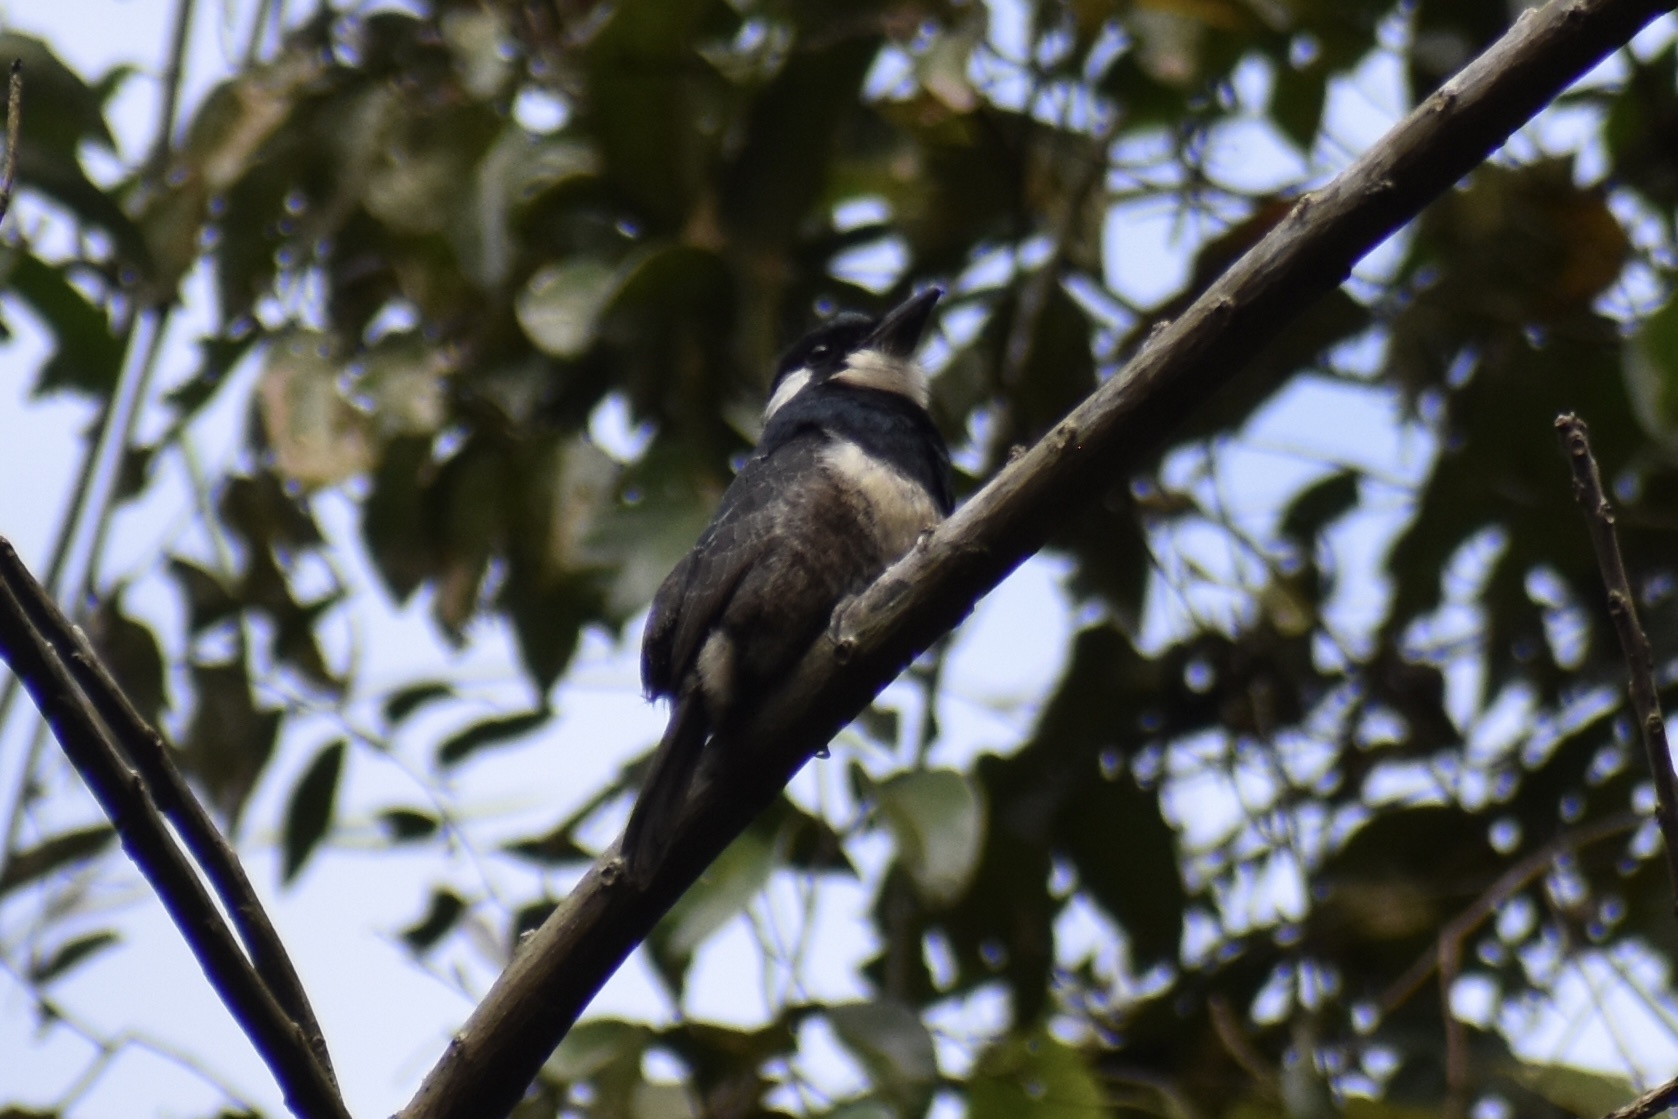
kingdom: Animalia
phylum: Chordata
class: Aves
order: Piciformes
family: Bucconidae
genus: Notharchus
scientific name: Notharchus pectoralis
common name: Black-breasted puffbird
